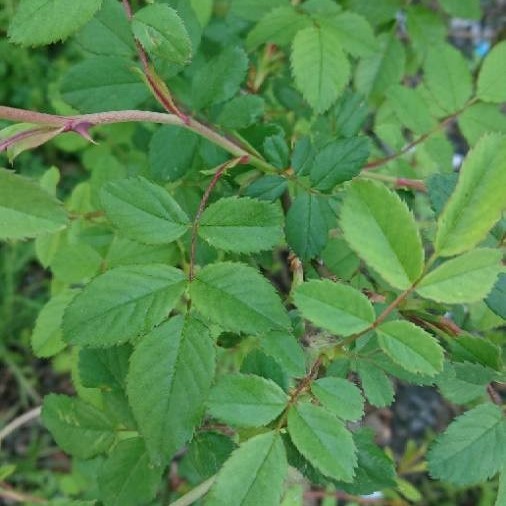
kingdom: Plantae
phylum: Tracheophyta
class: Magnoliopsida
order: Rosales
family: Rosaceae
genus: Rosa
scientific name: Rosa canina
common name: Dog rose
